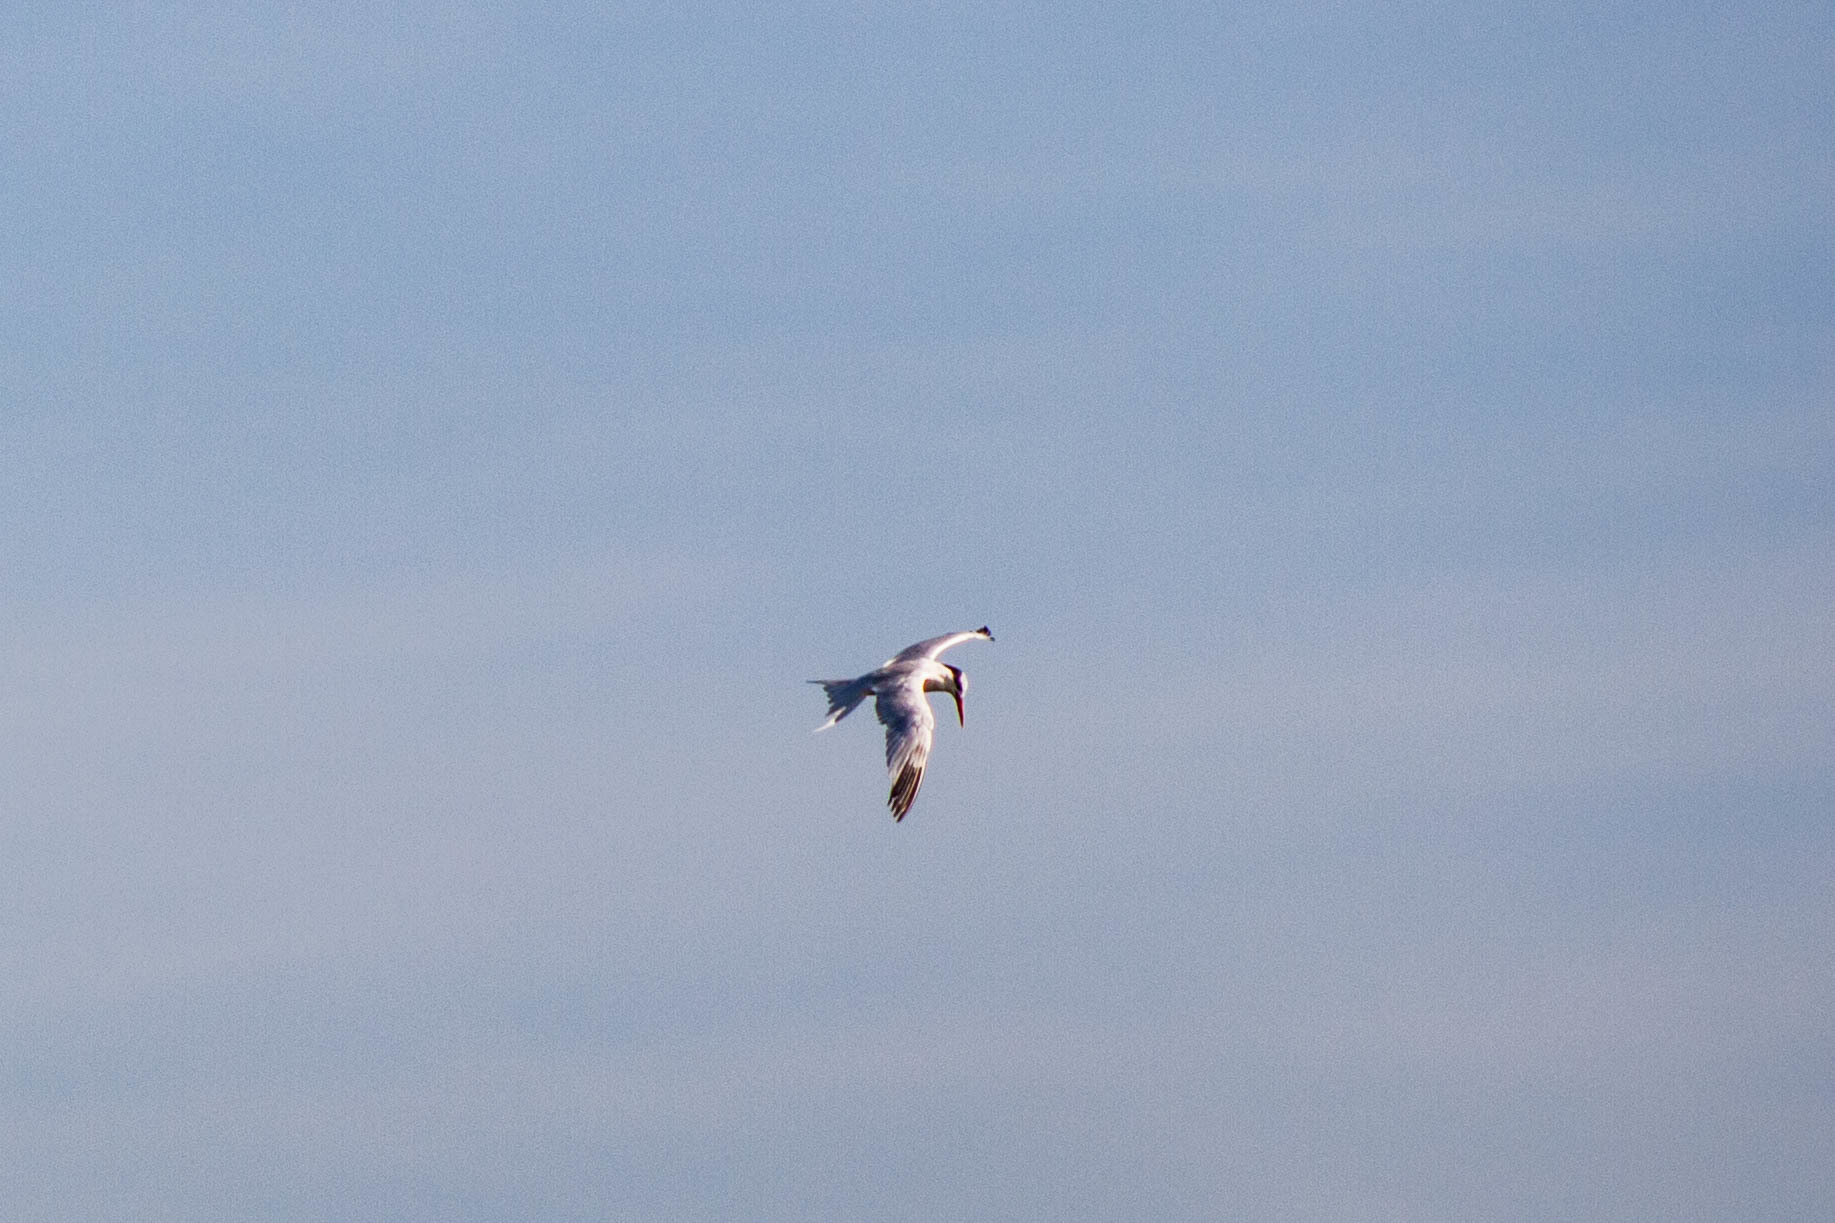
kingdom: Animalia
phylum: Chordata
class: Aves
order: Charadriiformes
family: Laridae
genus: Thalasseus
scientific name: Thalasseus maximus
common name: Royal tern
